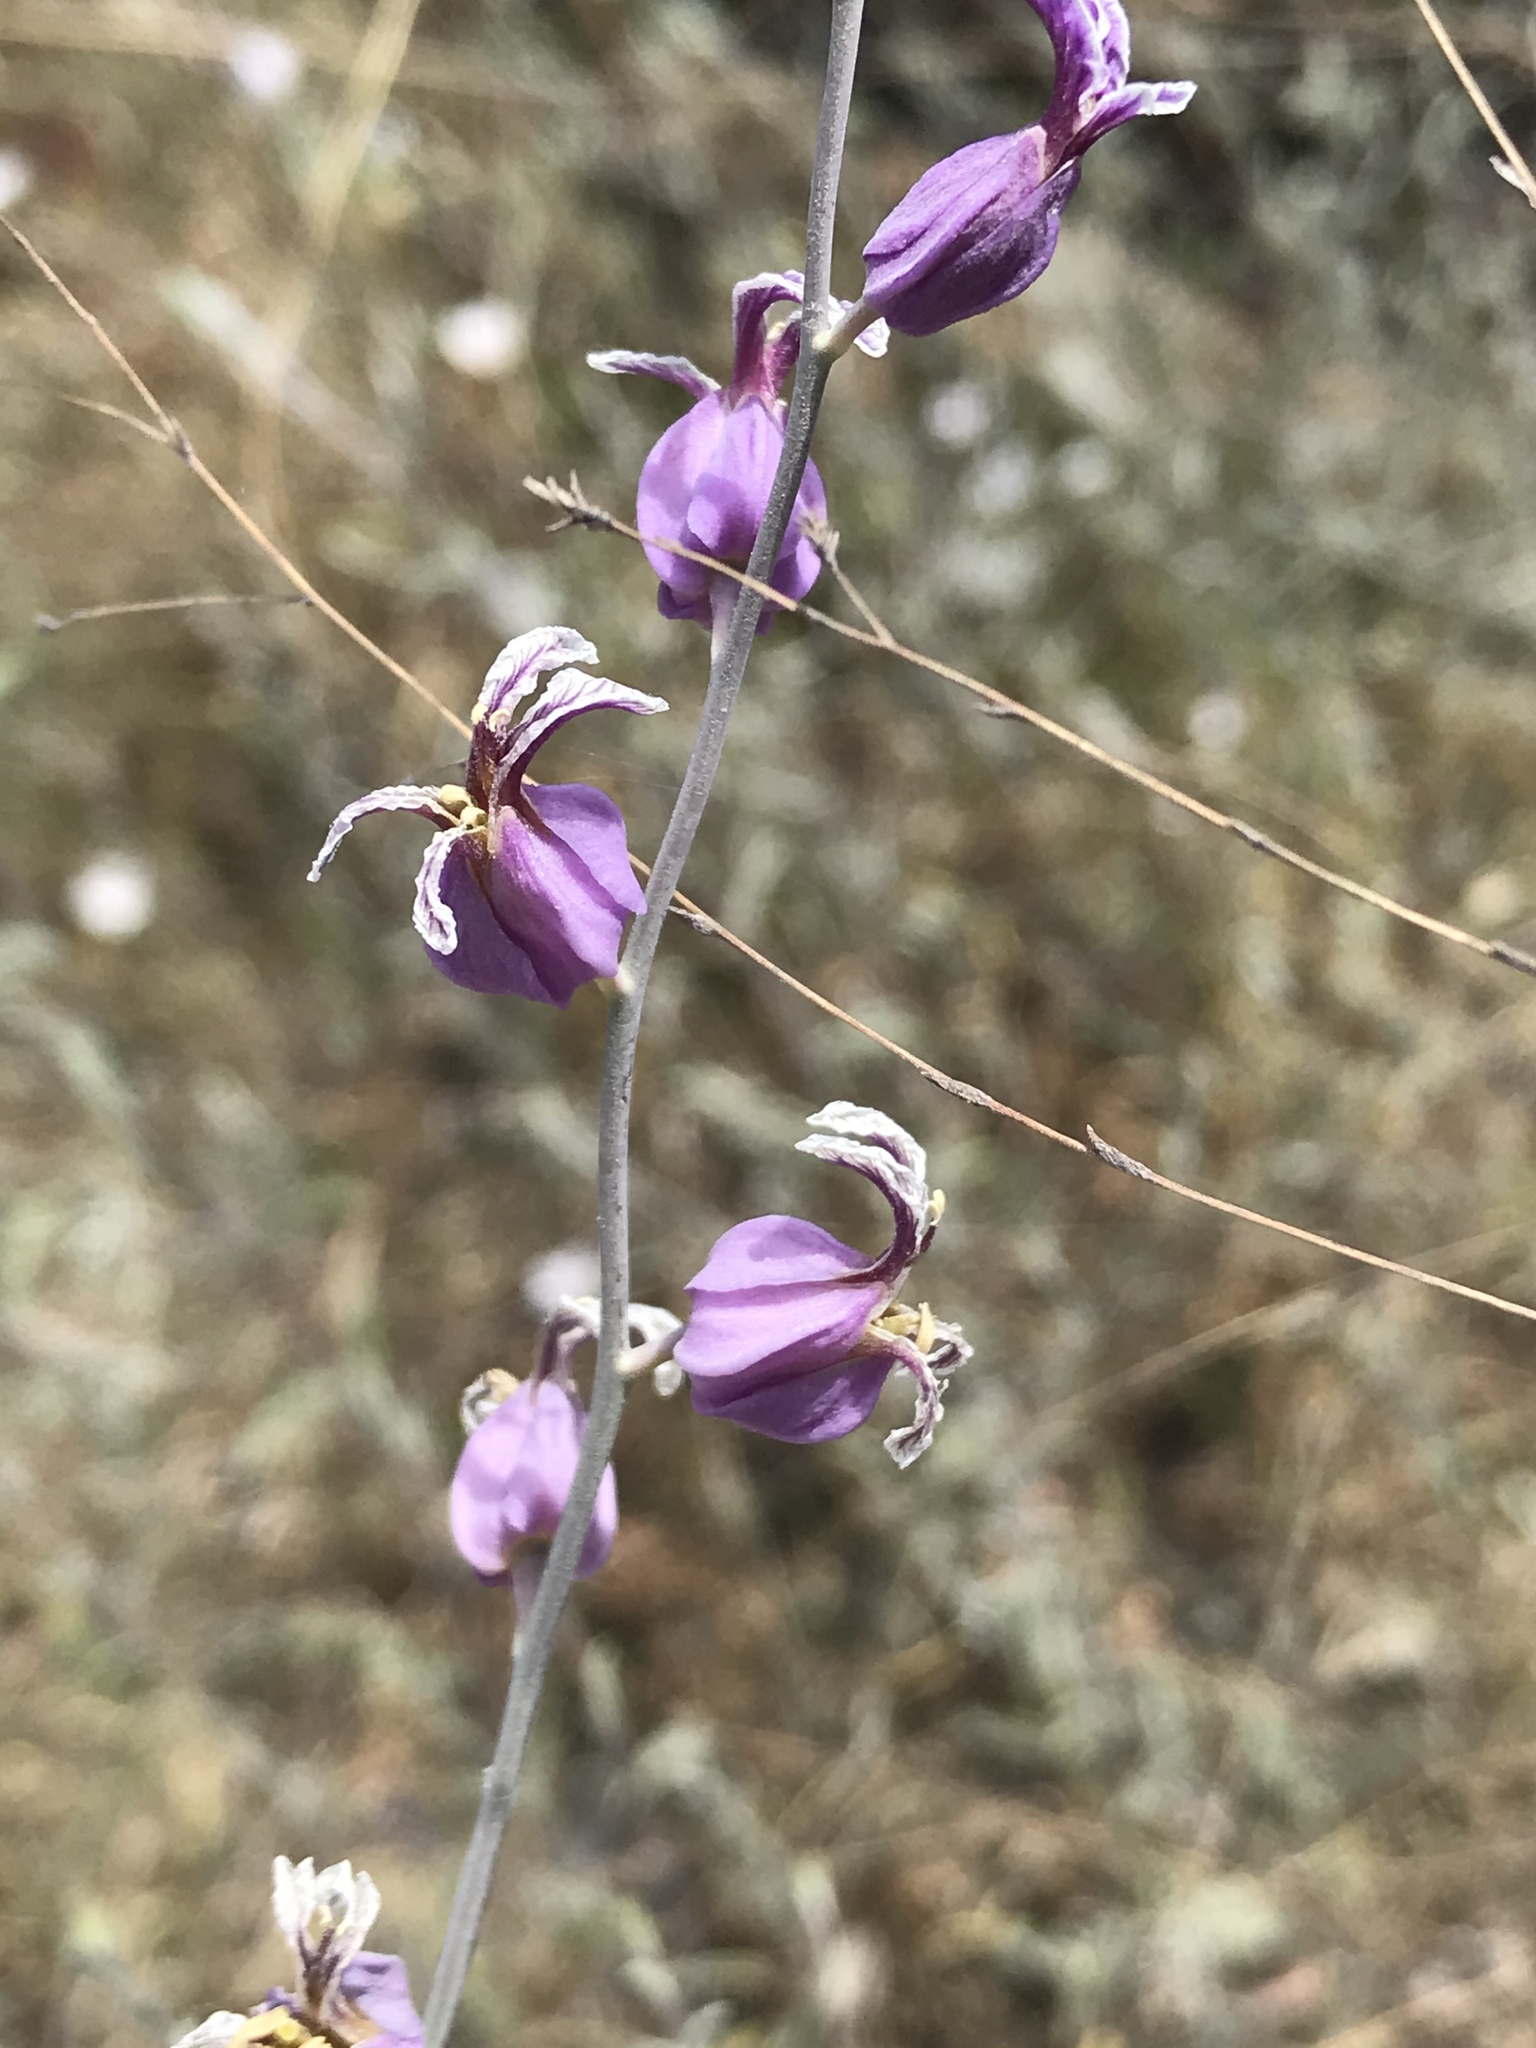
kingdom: Plantae
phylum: Tracheophyta
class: Magnoliopsida
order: Brassicales
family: Brassicaceae
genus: Streptanthus
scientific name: Streptanthus glandulosus
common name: Jewel-flower
